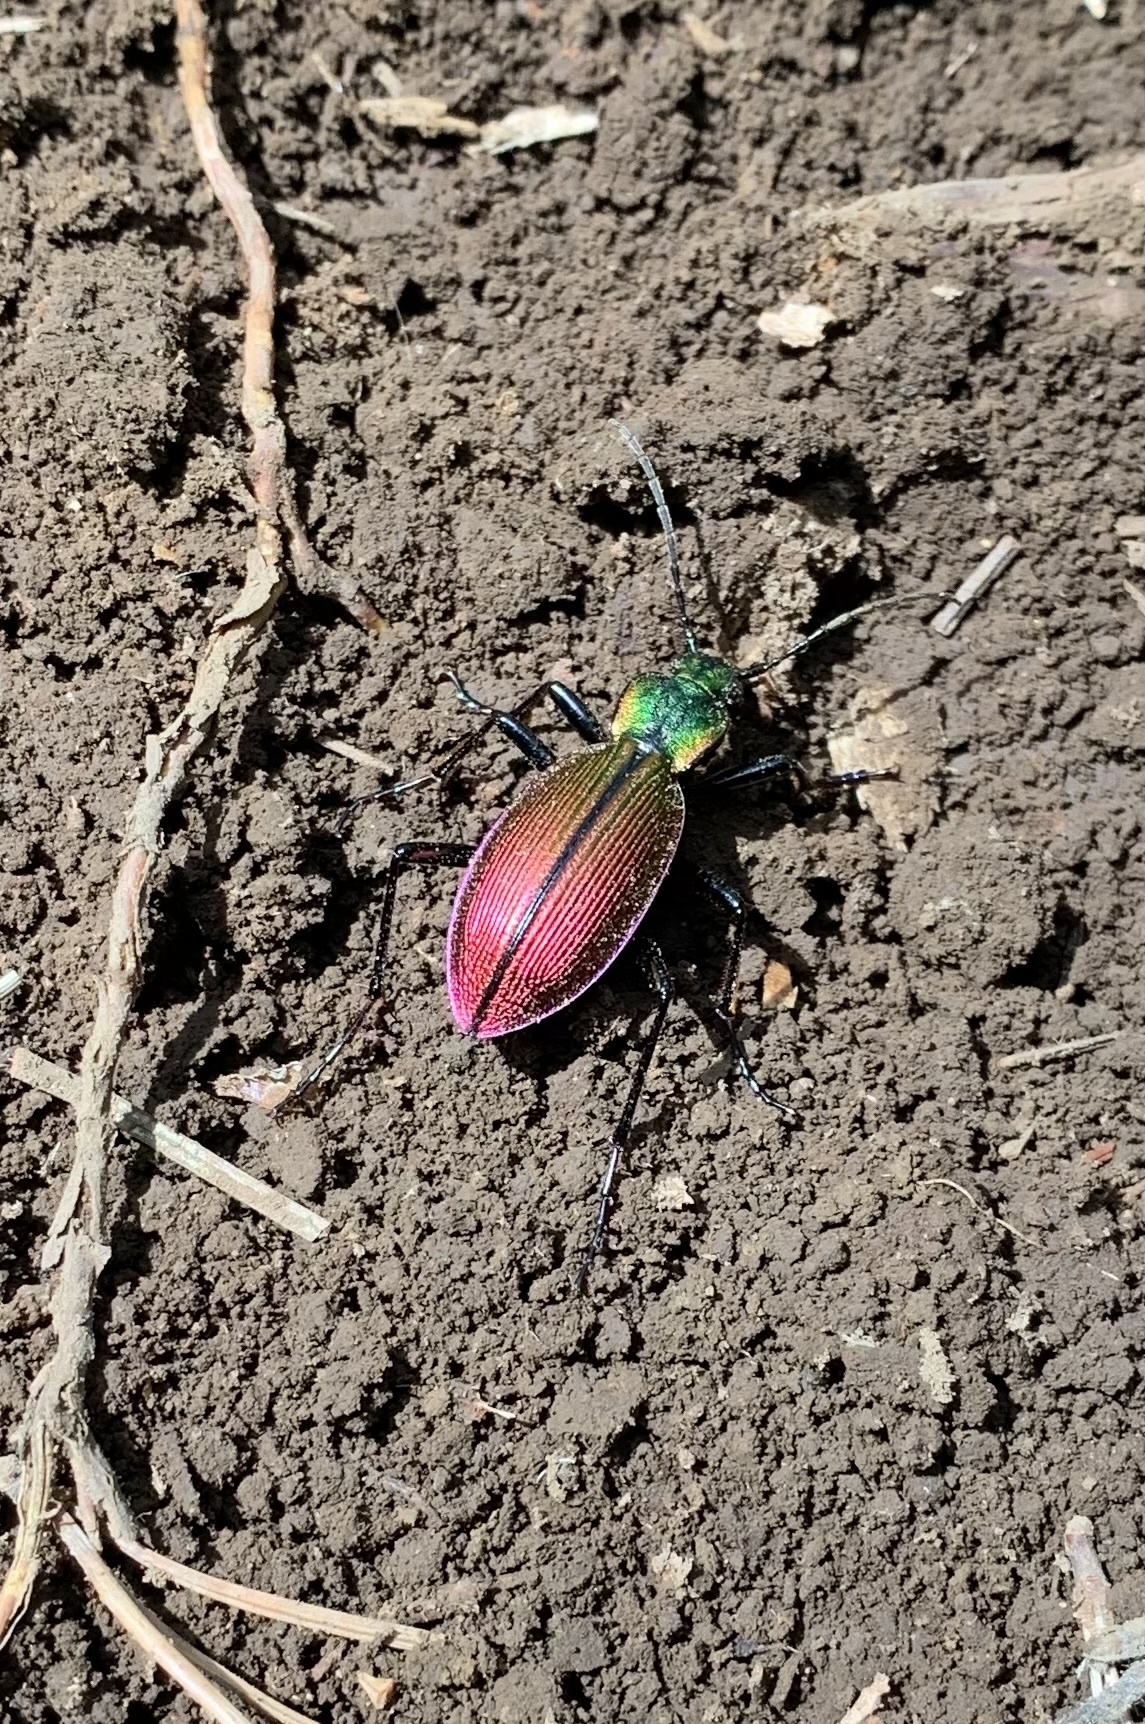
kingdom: Animalia
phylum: Arthropoda
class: Insecta
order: Coleoptera
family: Carabidae
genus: Ceroglossus
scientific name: Ceroglossus chilensis
